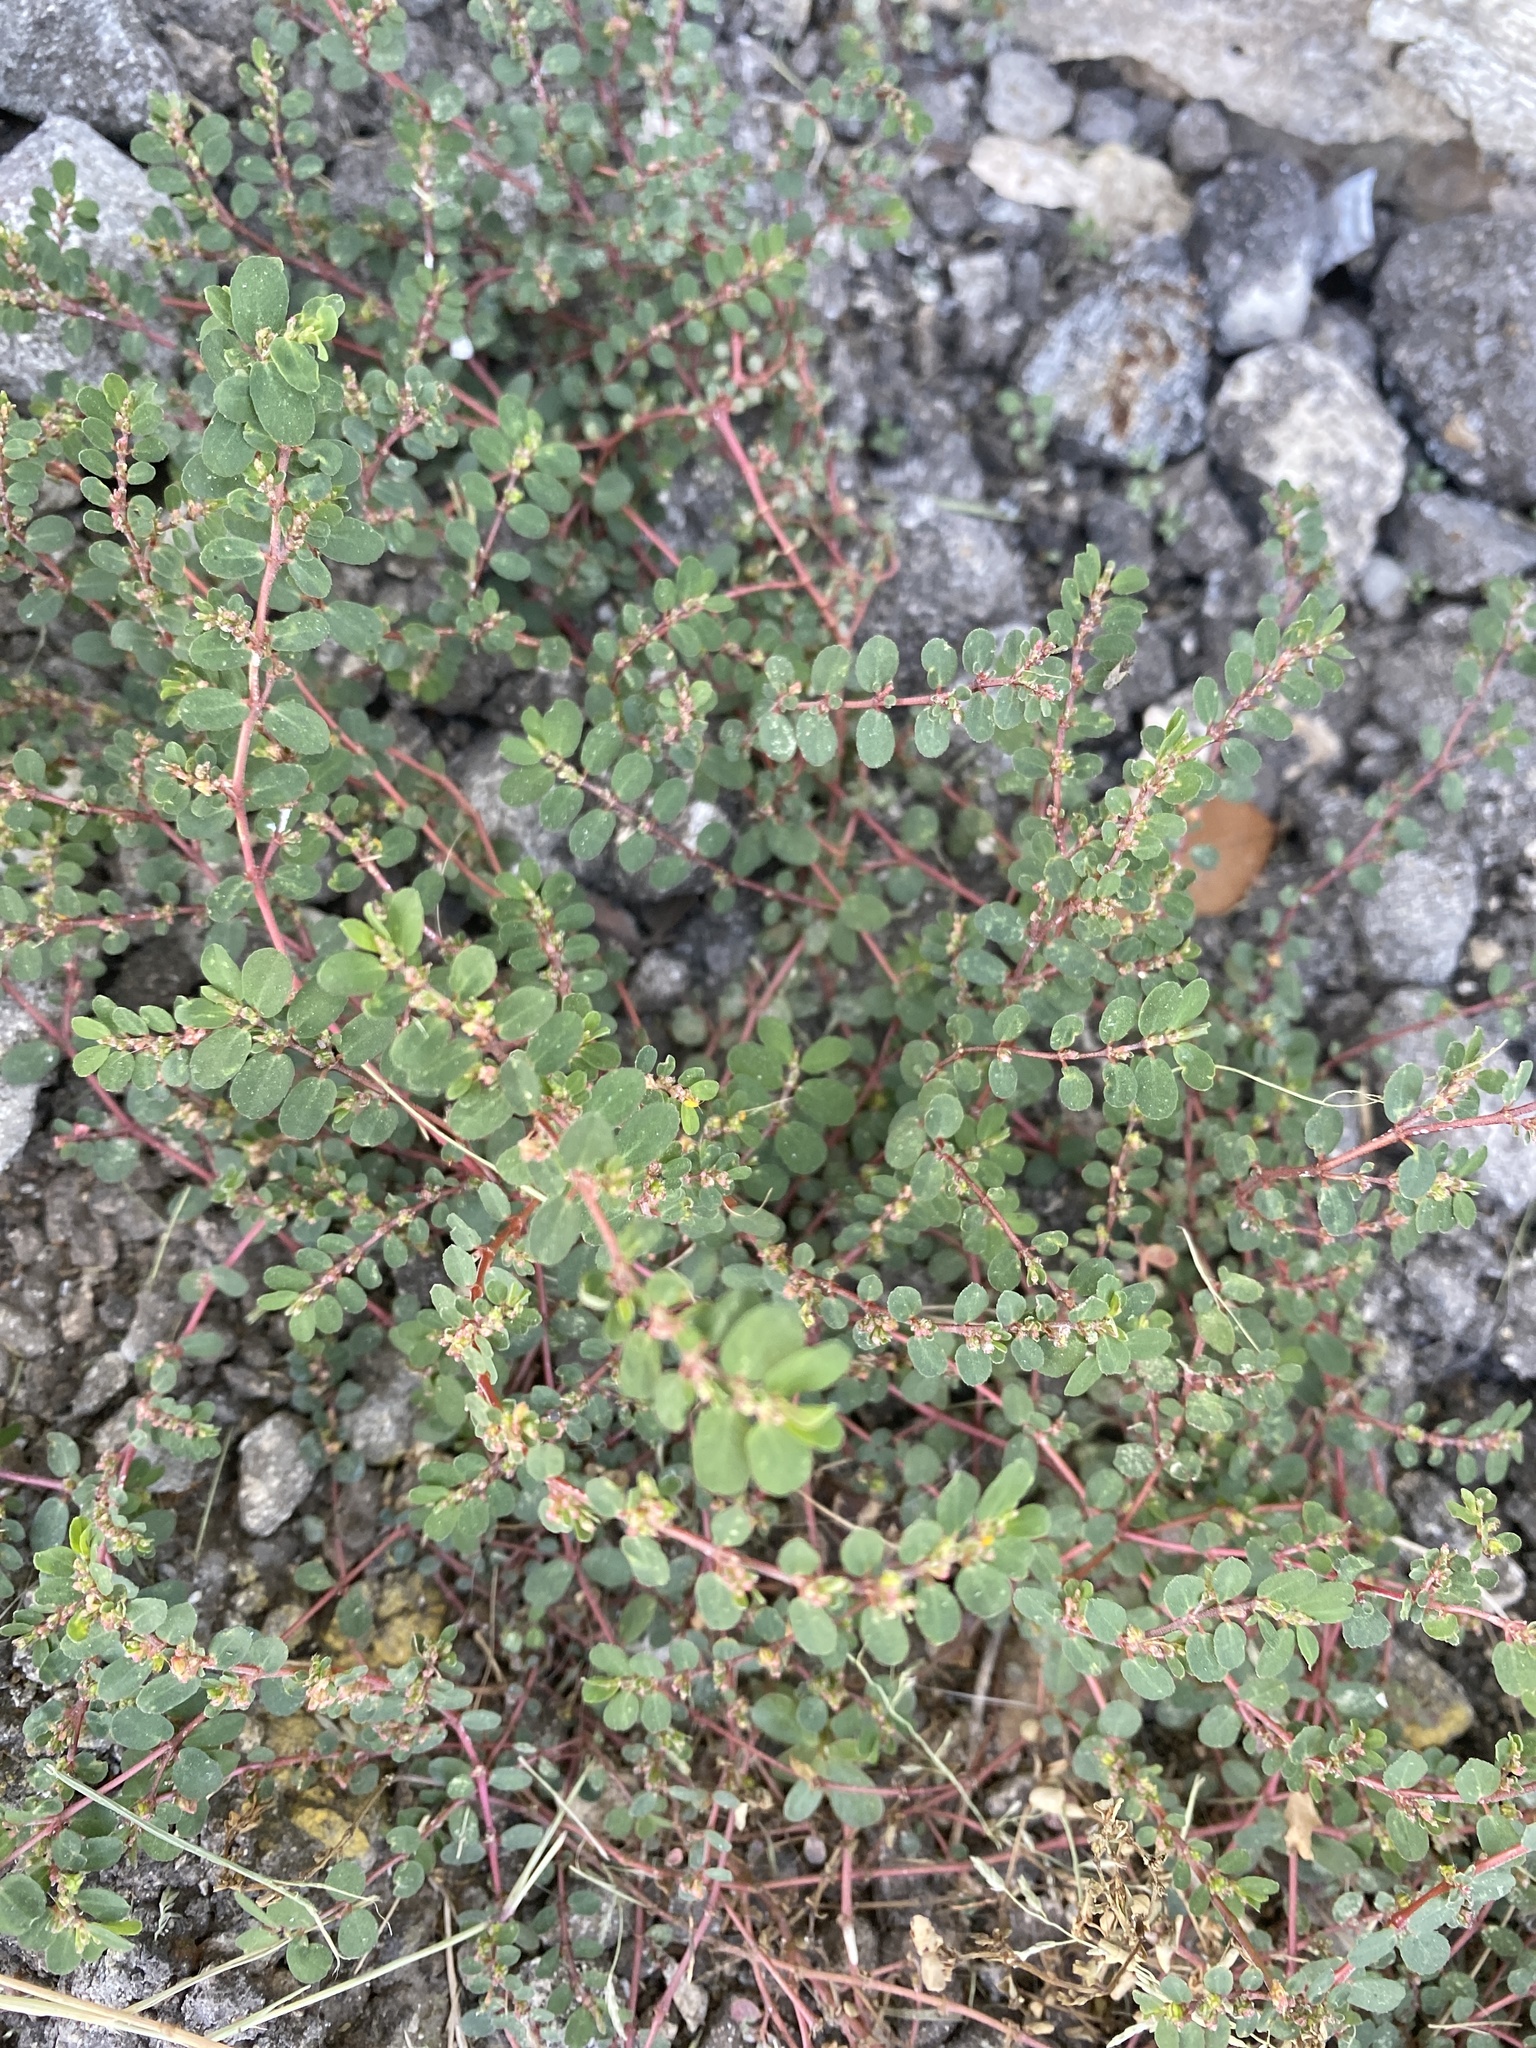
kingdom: Plantae
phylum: Tracheophyta
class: Magnoliopsida
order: Malpighiales
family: Euphorbiaceae
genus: Euphorbia
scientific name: Euphorbia prostrata
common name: Prostrate sandmat
